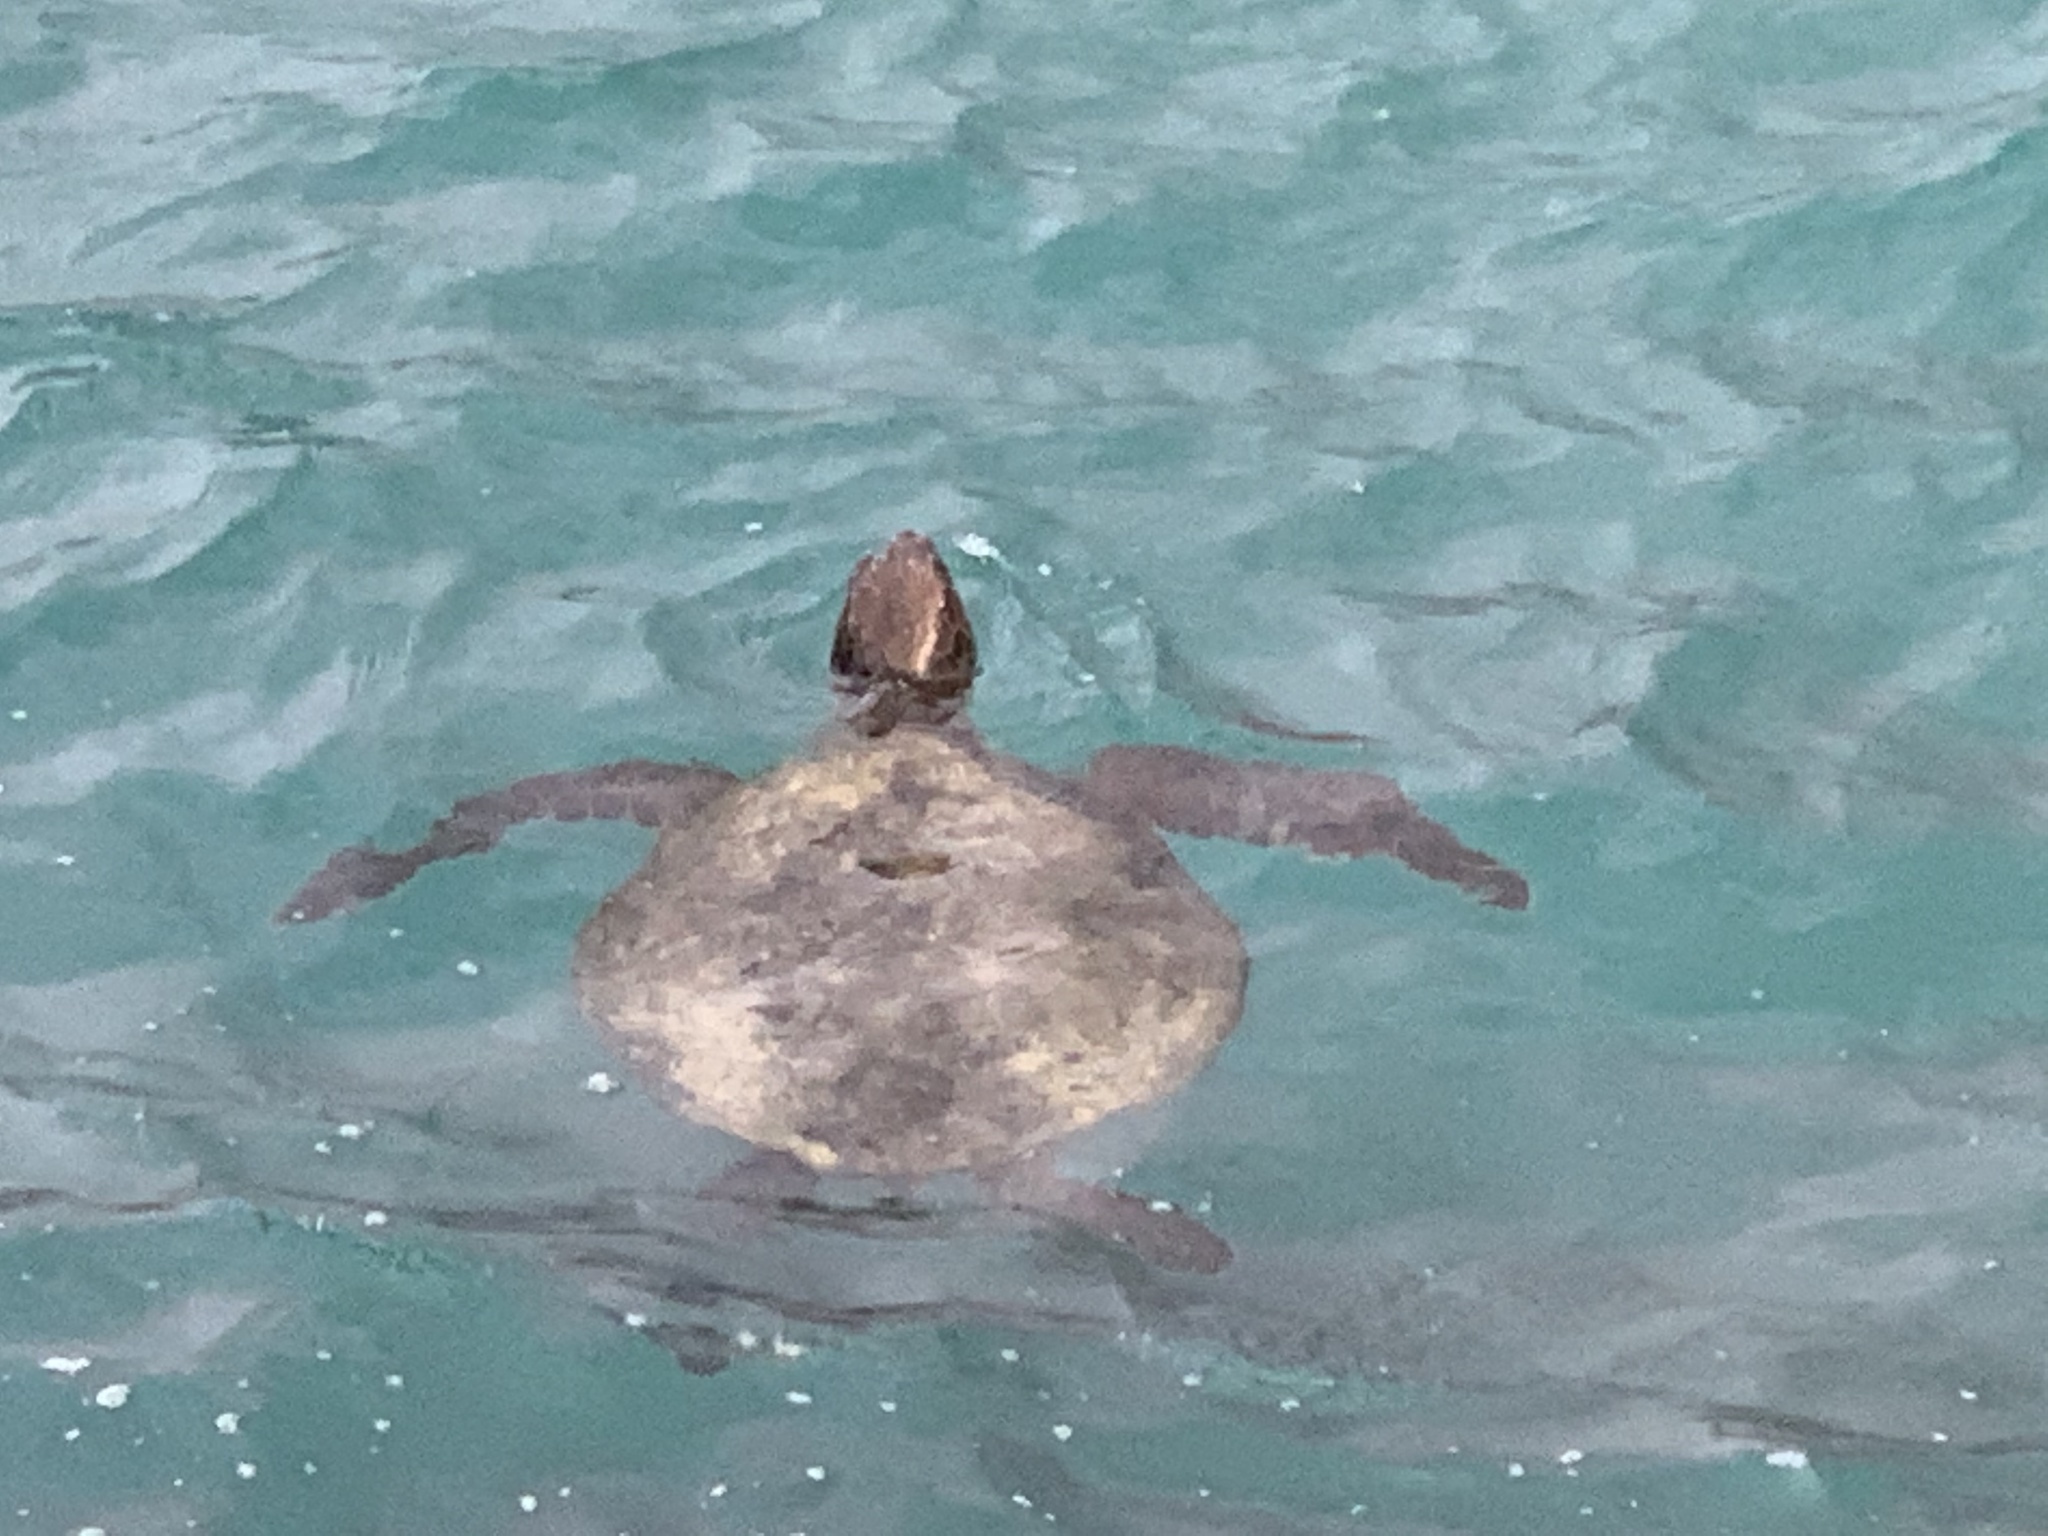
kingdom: Animalia
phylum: Chordata
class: Testudines
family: Cheloniidae
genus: Chelonia
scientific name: Chelonia mydas
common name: Green turtle
